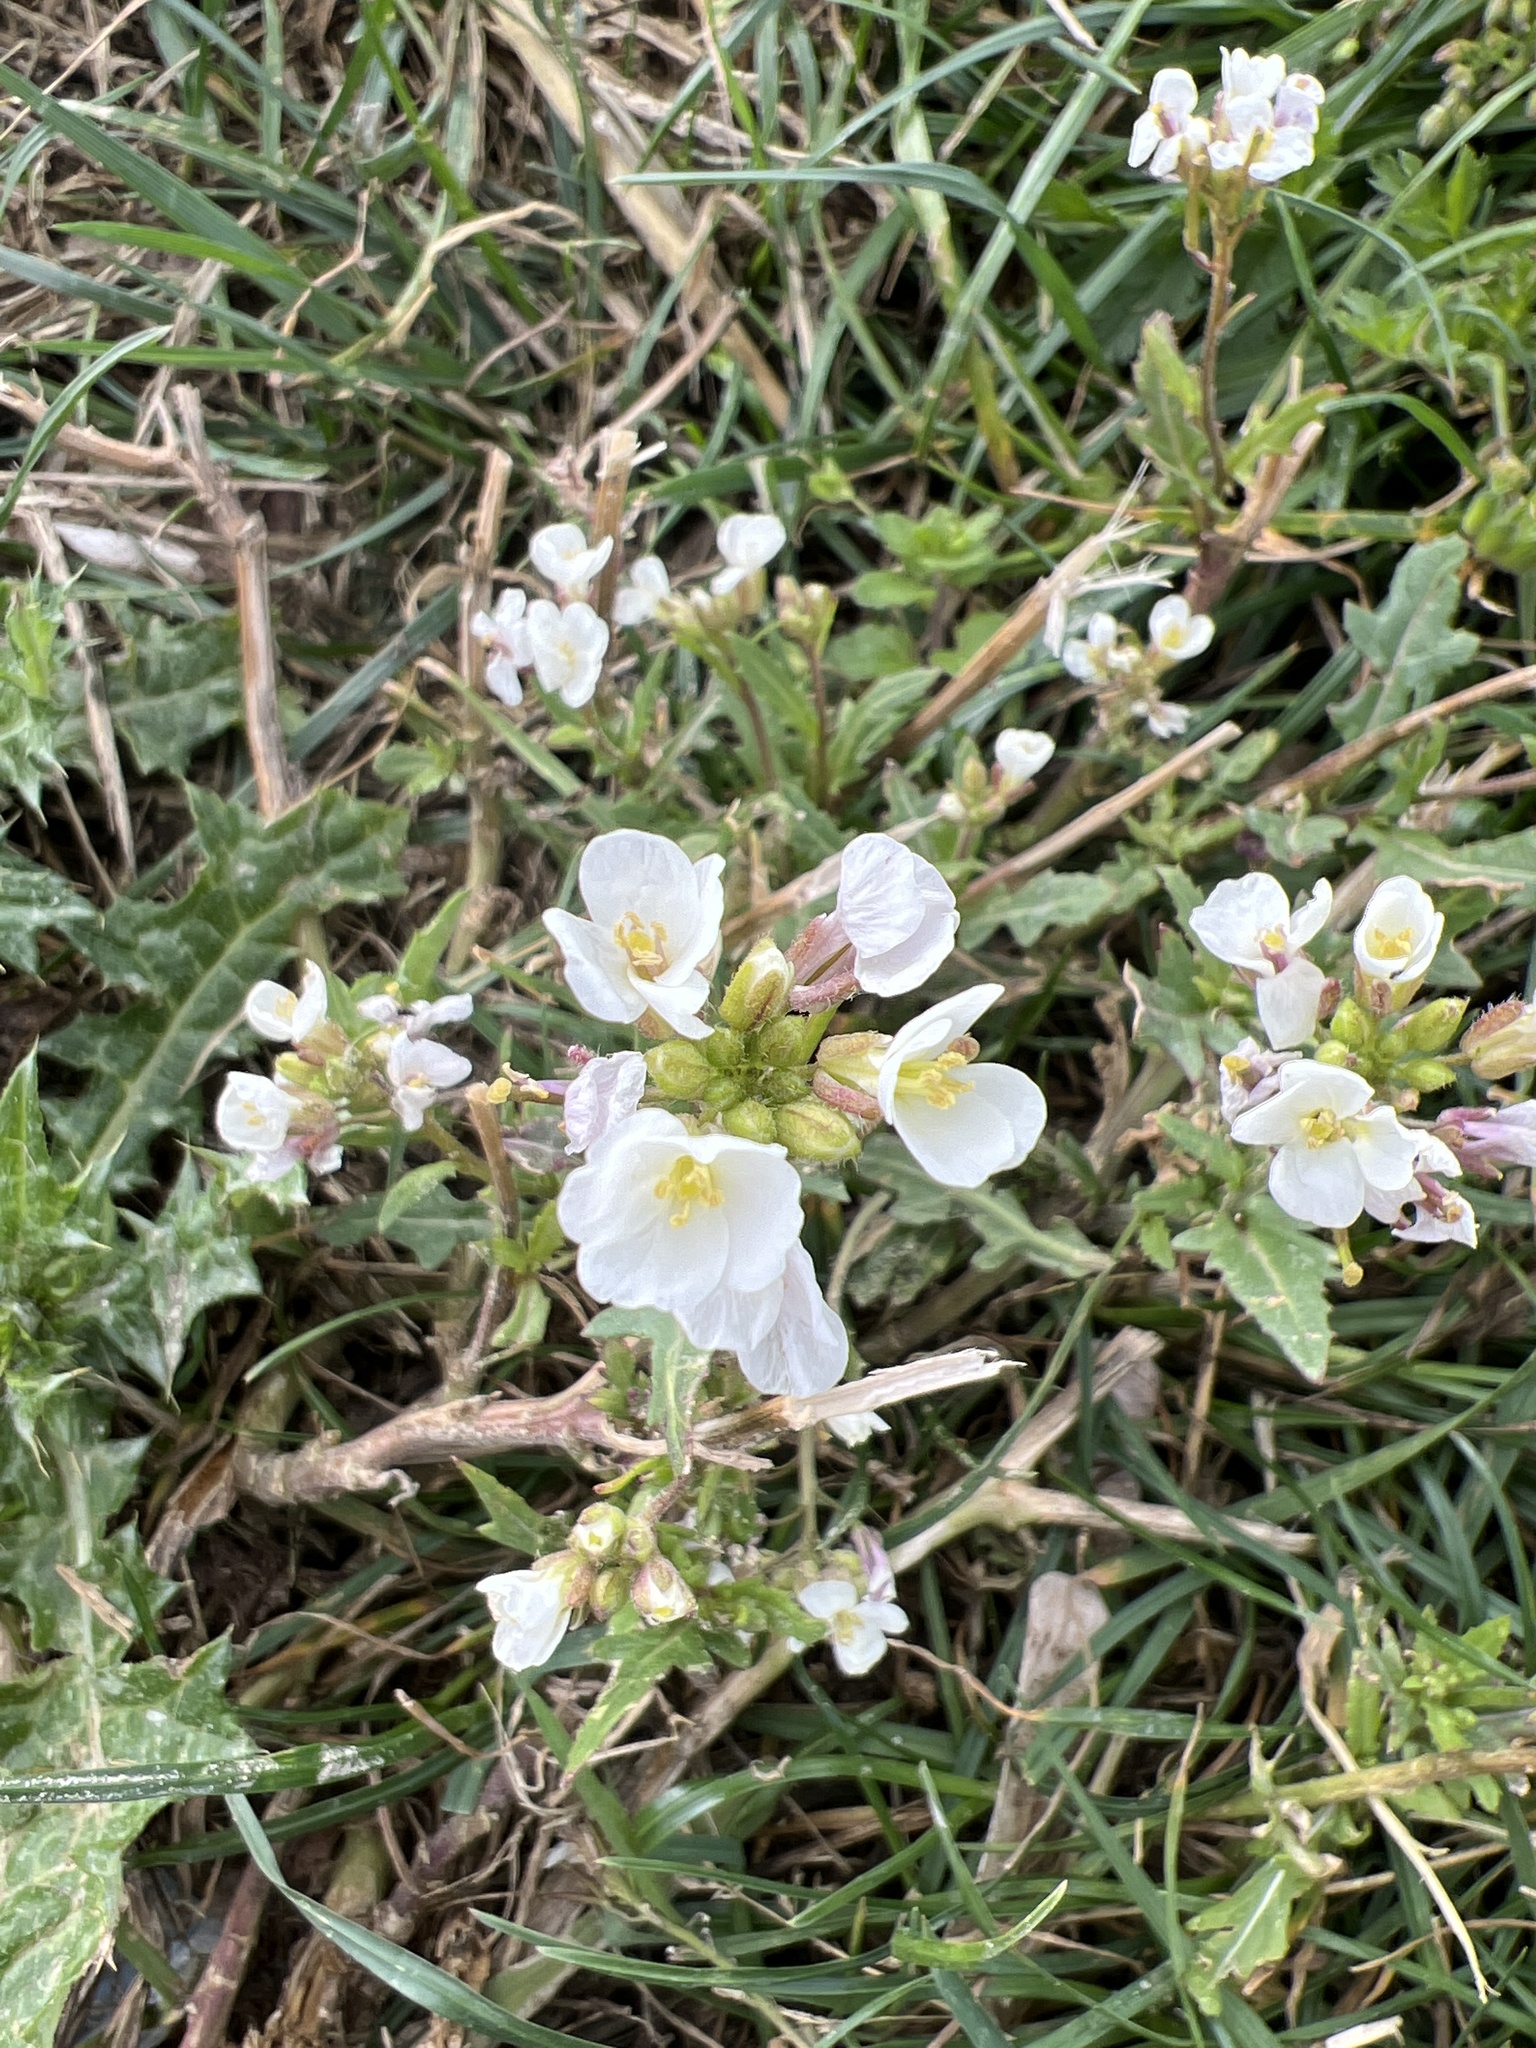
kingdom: Plantae
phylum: Tracheophyta
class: Magnoliopsida
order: Brassicales
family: Brassicaceae
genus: Diplotaxis
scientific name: Diplotaxis erucoides
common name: White rocket
